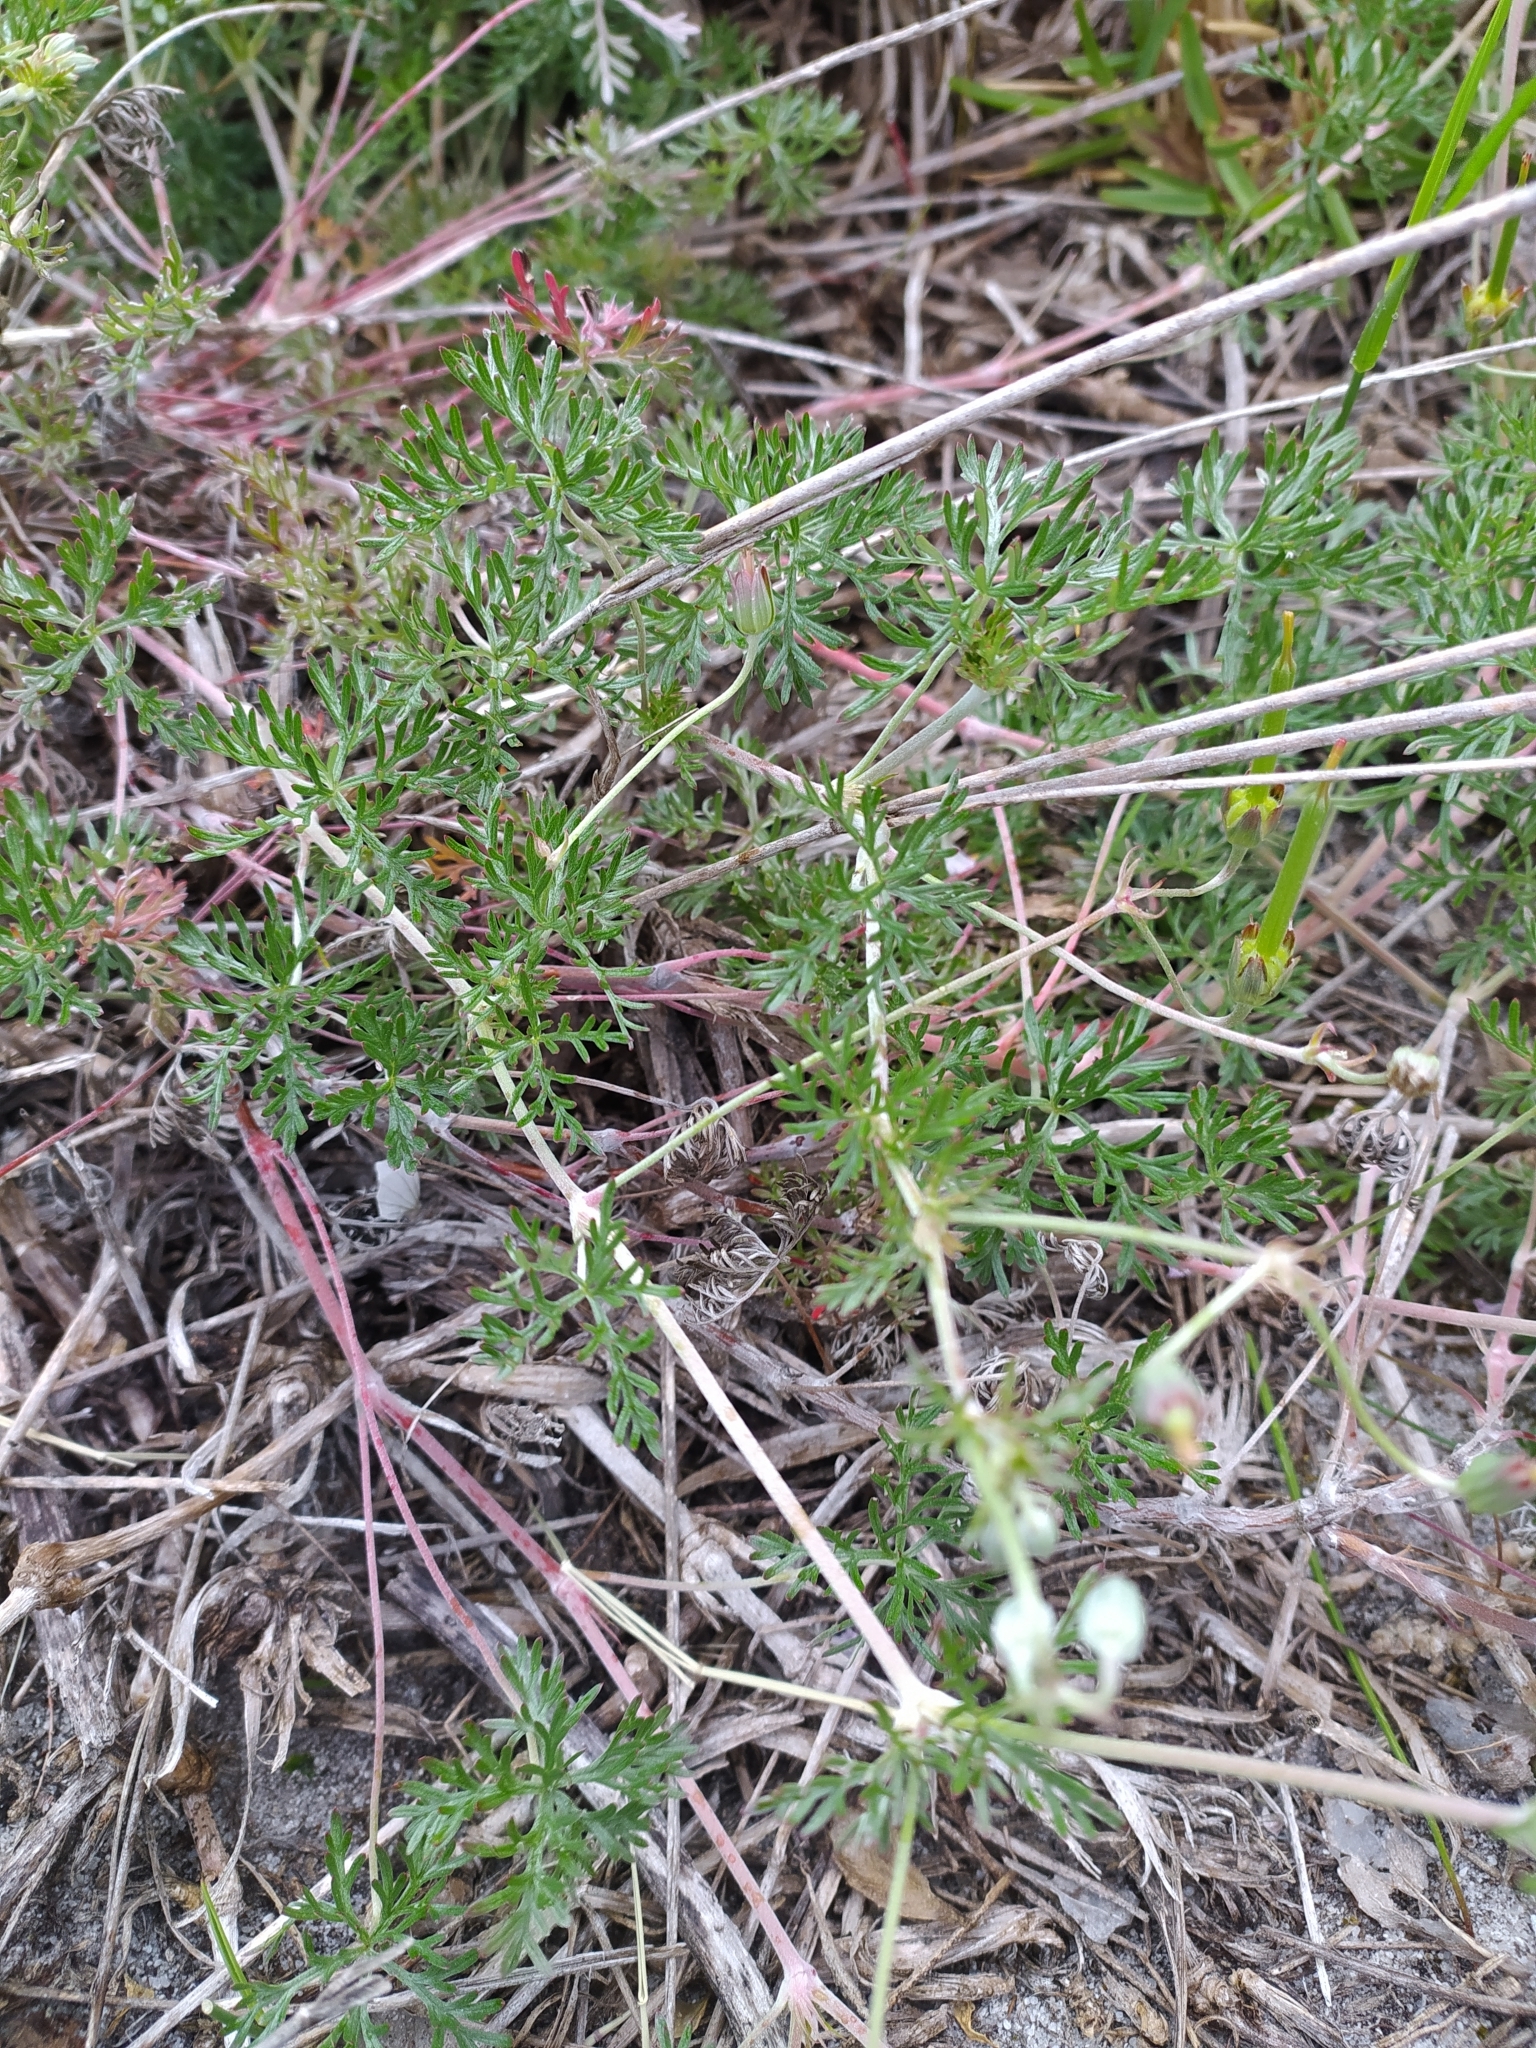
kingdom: Plantae
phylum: Tracheophyta
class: Magnoliopsida
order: Geraniales
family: Geraniaceae
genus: Geranium
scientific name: Geranium incanum
